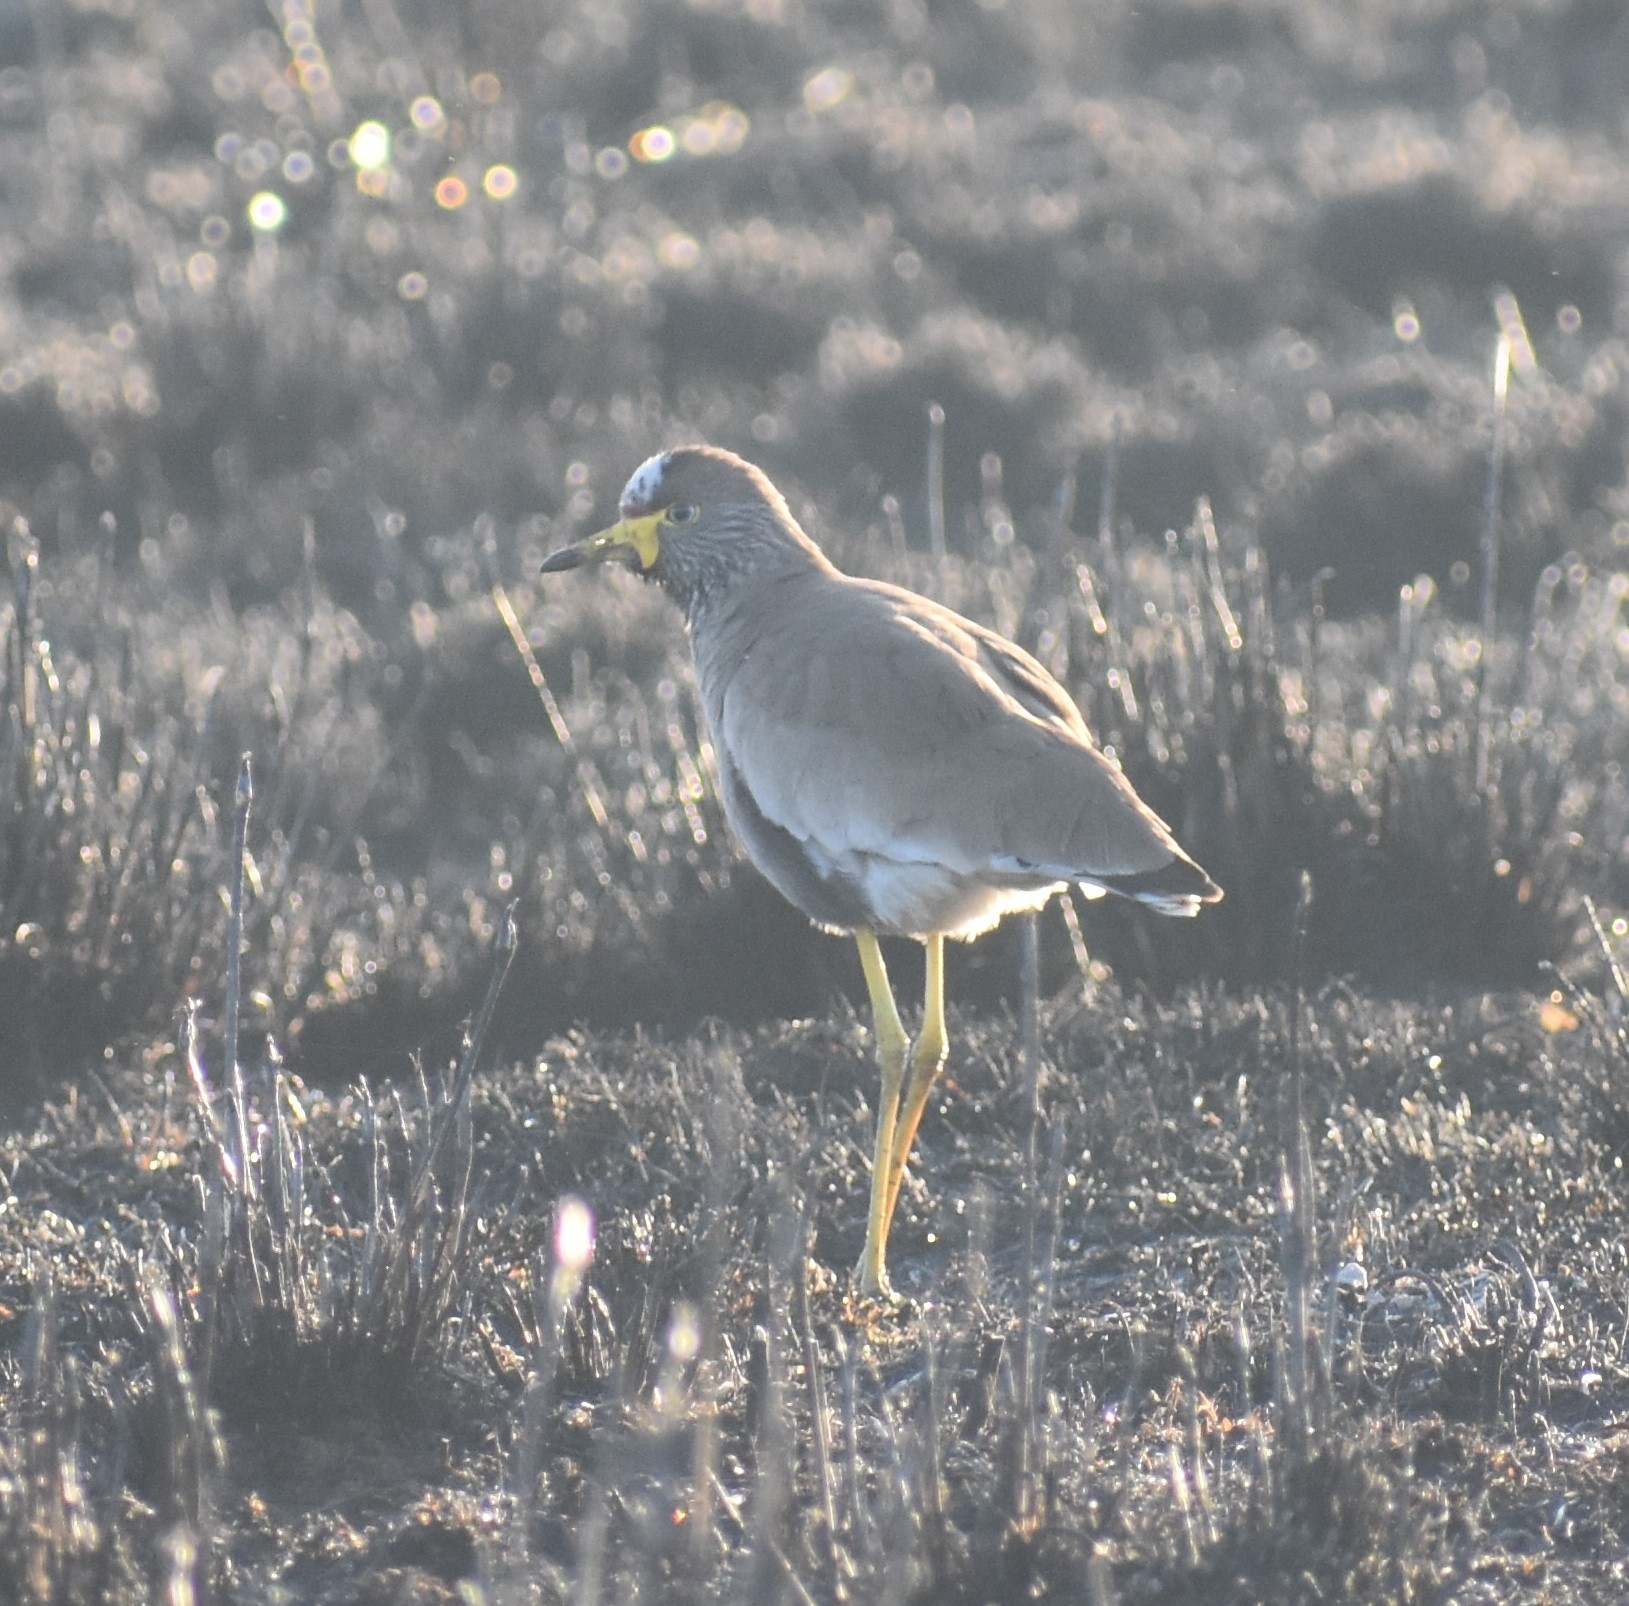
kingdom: Animalia
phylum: Chordata
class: Aves
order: Charadriiformes
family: Charadriidae
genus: Vanellus
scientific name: Vanellus senegallus
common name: African wattled lapwing
